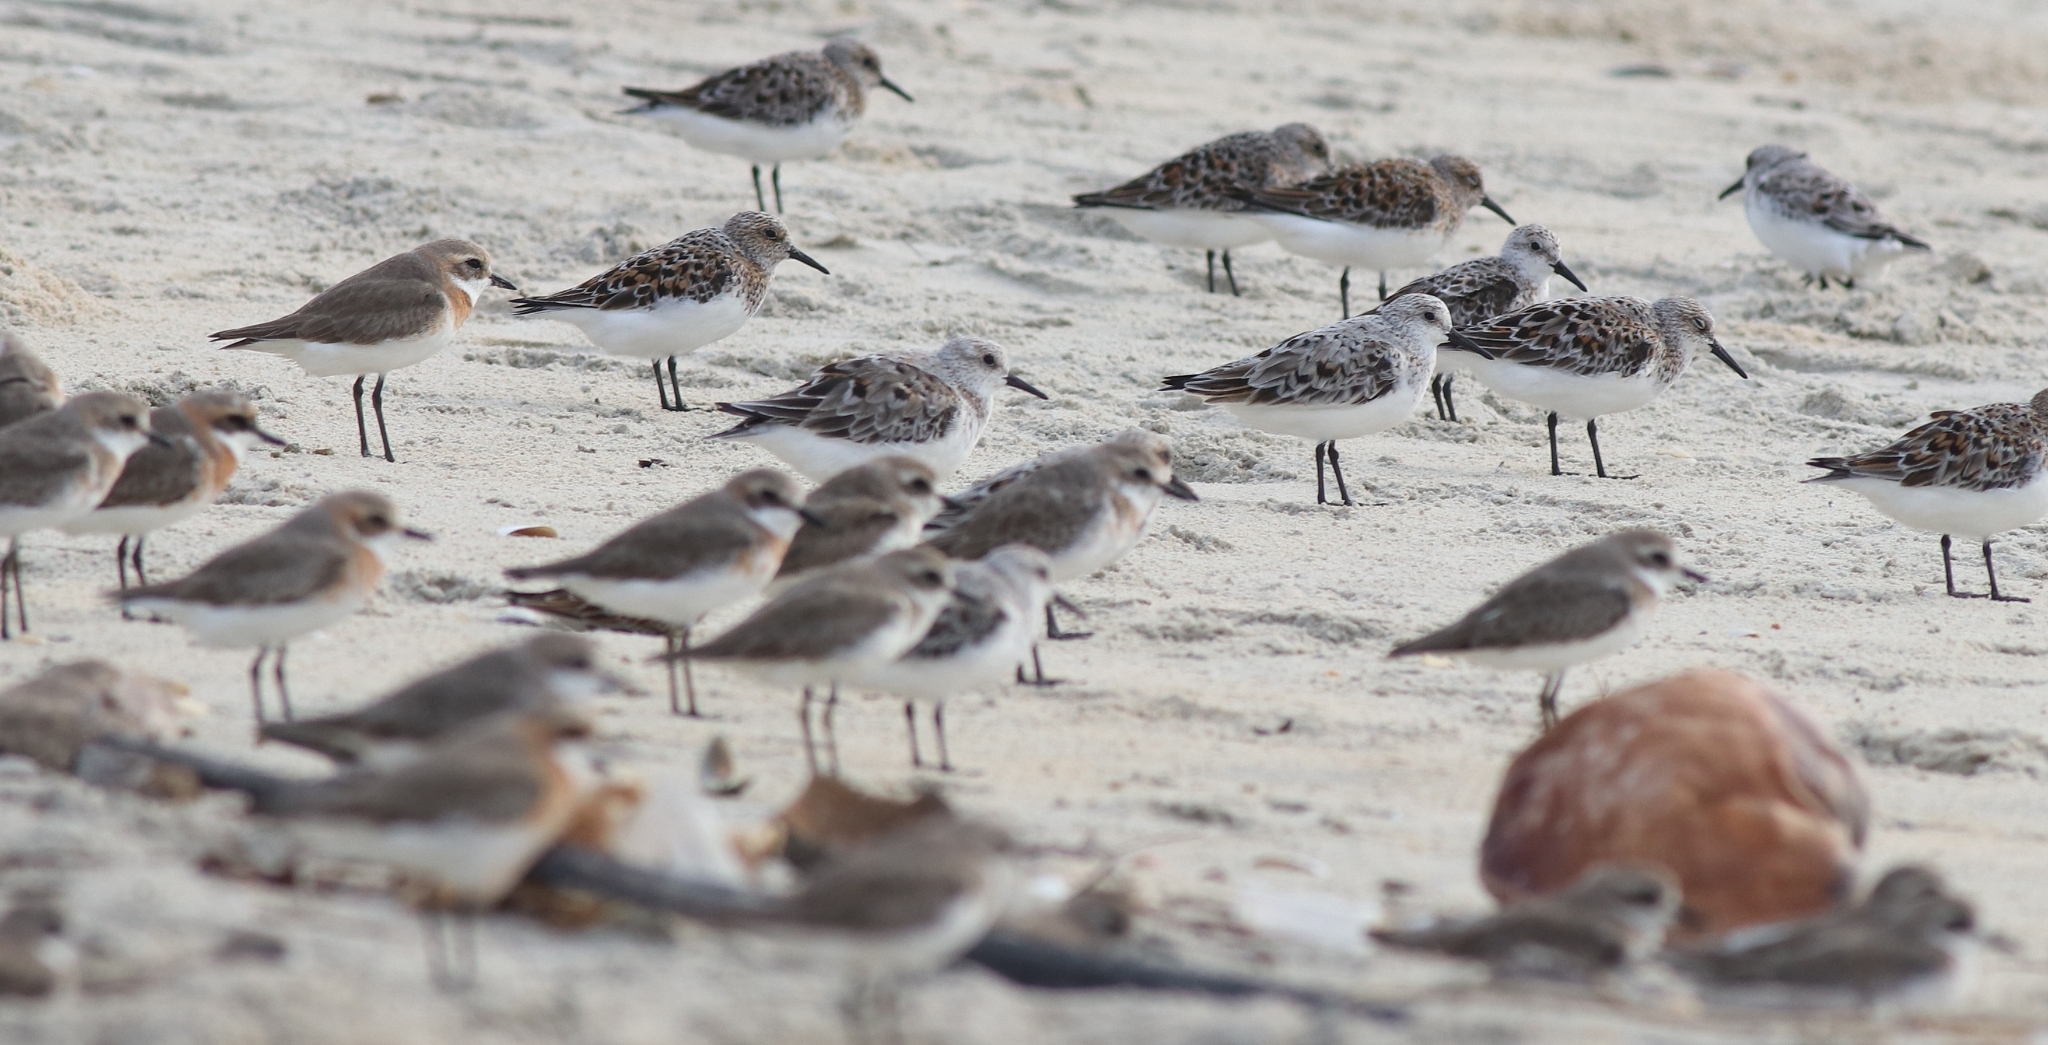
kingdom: Animalia
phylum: Chordata
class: Aves
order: Charadriiformes
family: Charadriidae
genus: Anarhynchus
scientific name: Anarhynchus
